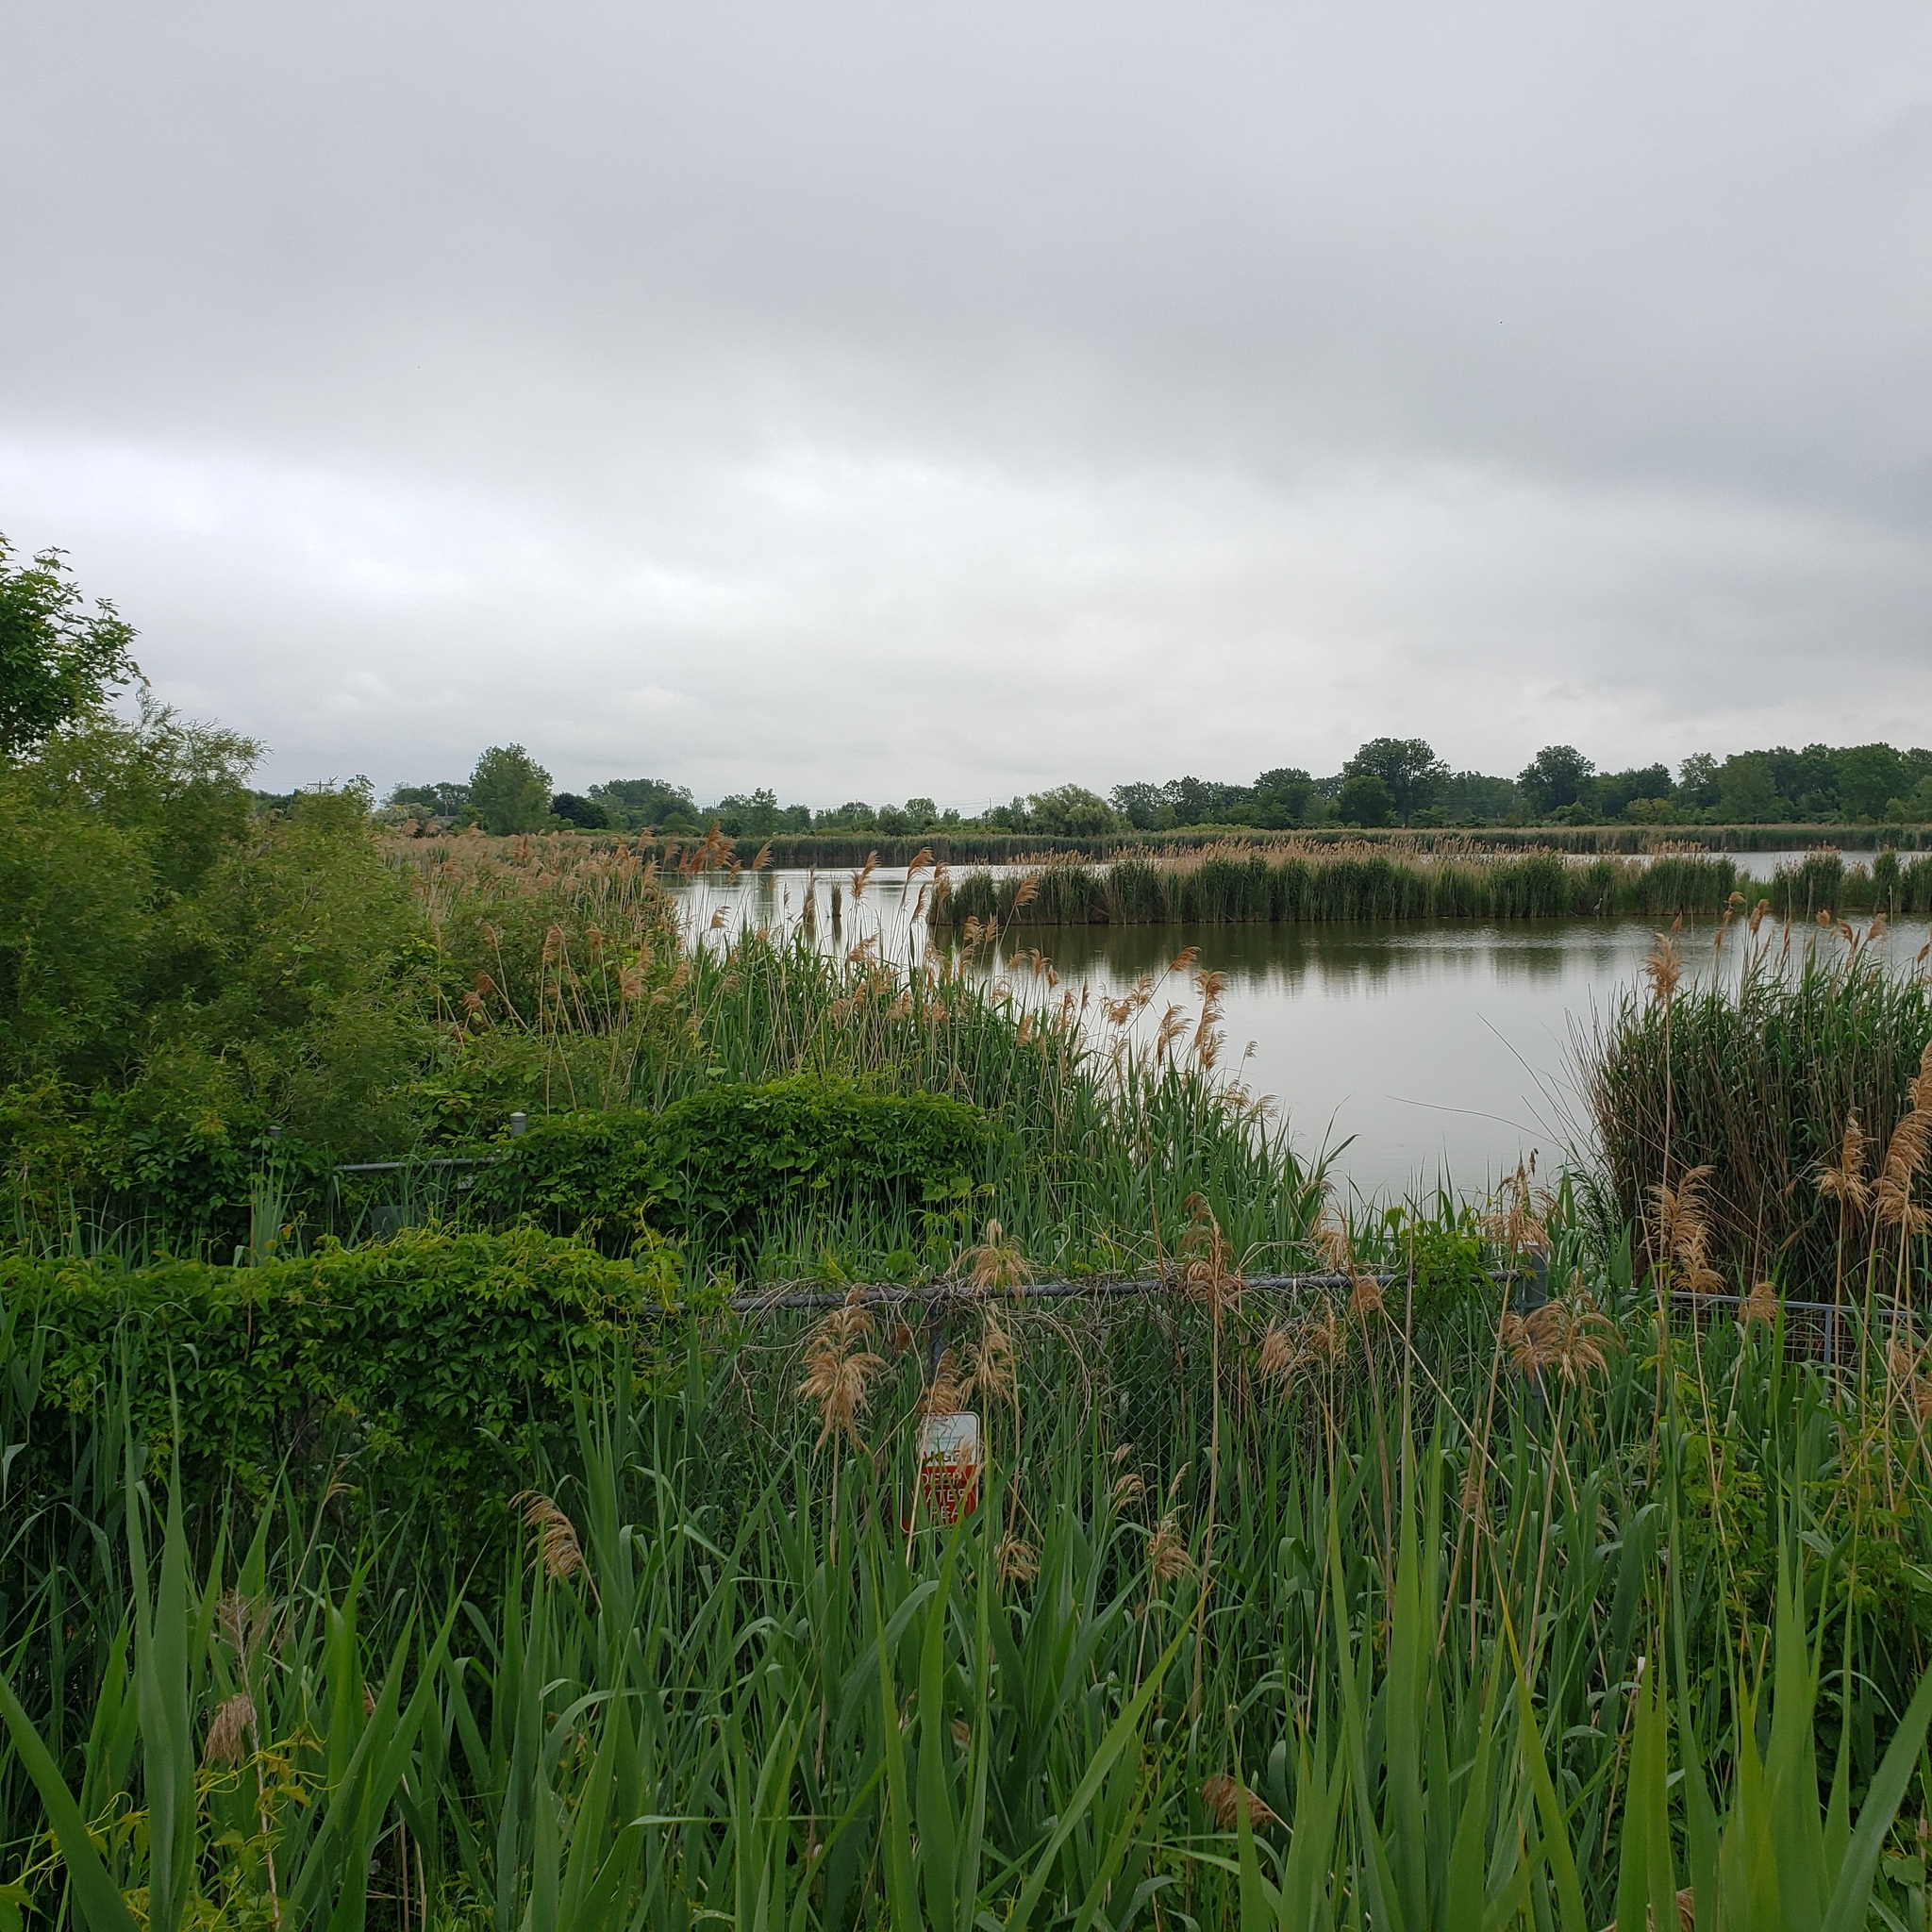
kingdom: Plantae
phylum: Tracheophyta
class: Liliopsida
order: Poales
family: Poaceae
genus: Phragmites
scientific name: Phragmites australis
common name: Common reed
